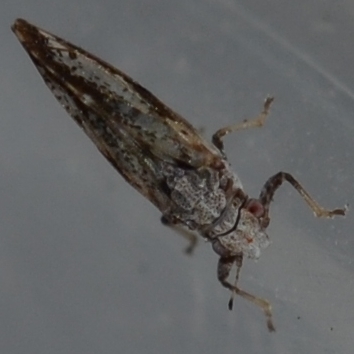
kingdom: Animalia
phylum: Arthropoda
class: Insecta
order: Hemiptera
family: Liviidae
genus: Diaphorina
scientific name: Diaphorina citri
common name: Asian citrus psyllid
